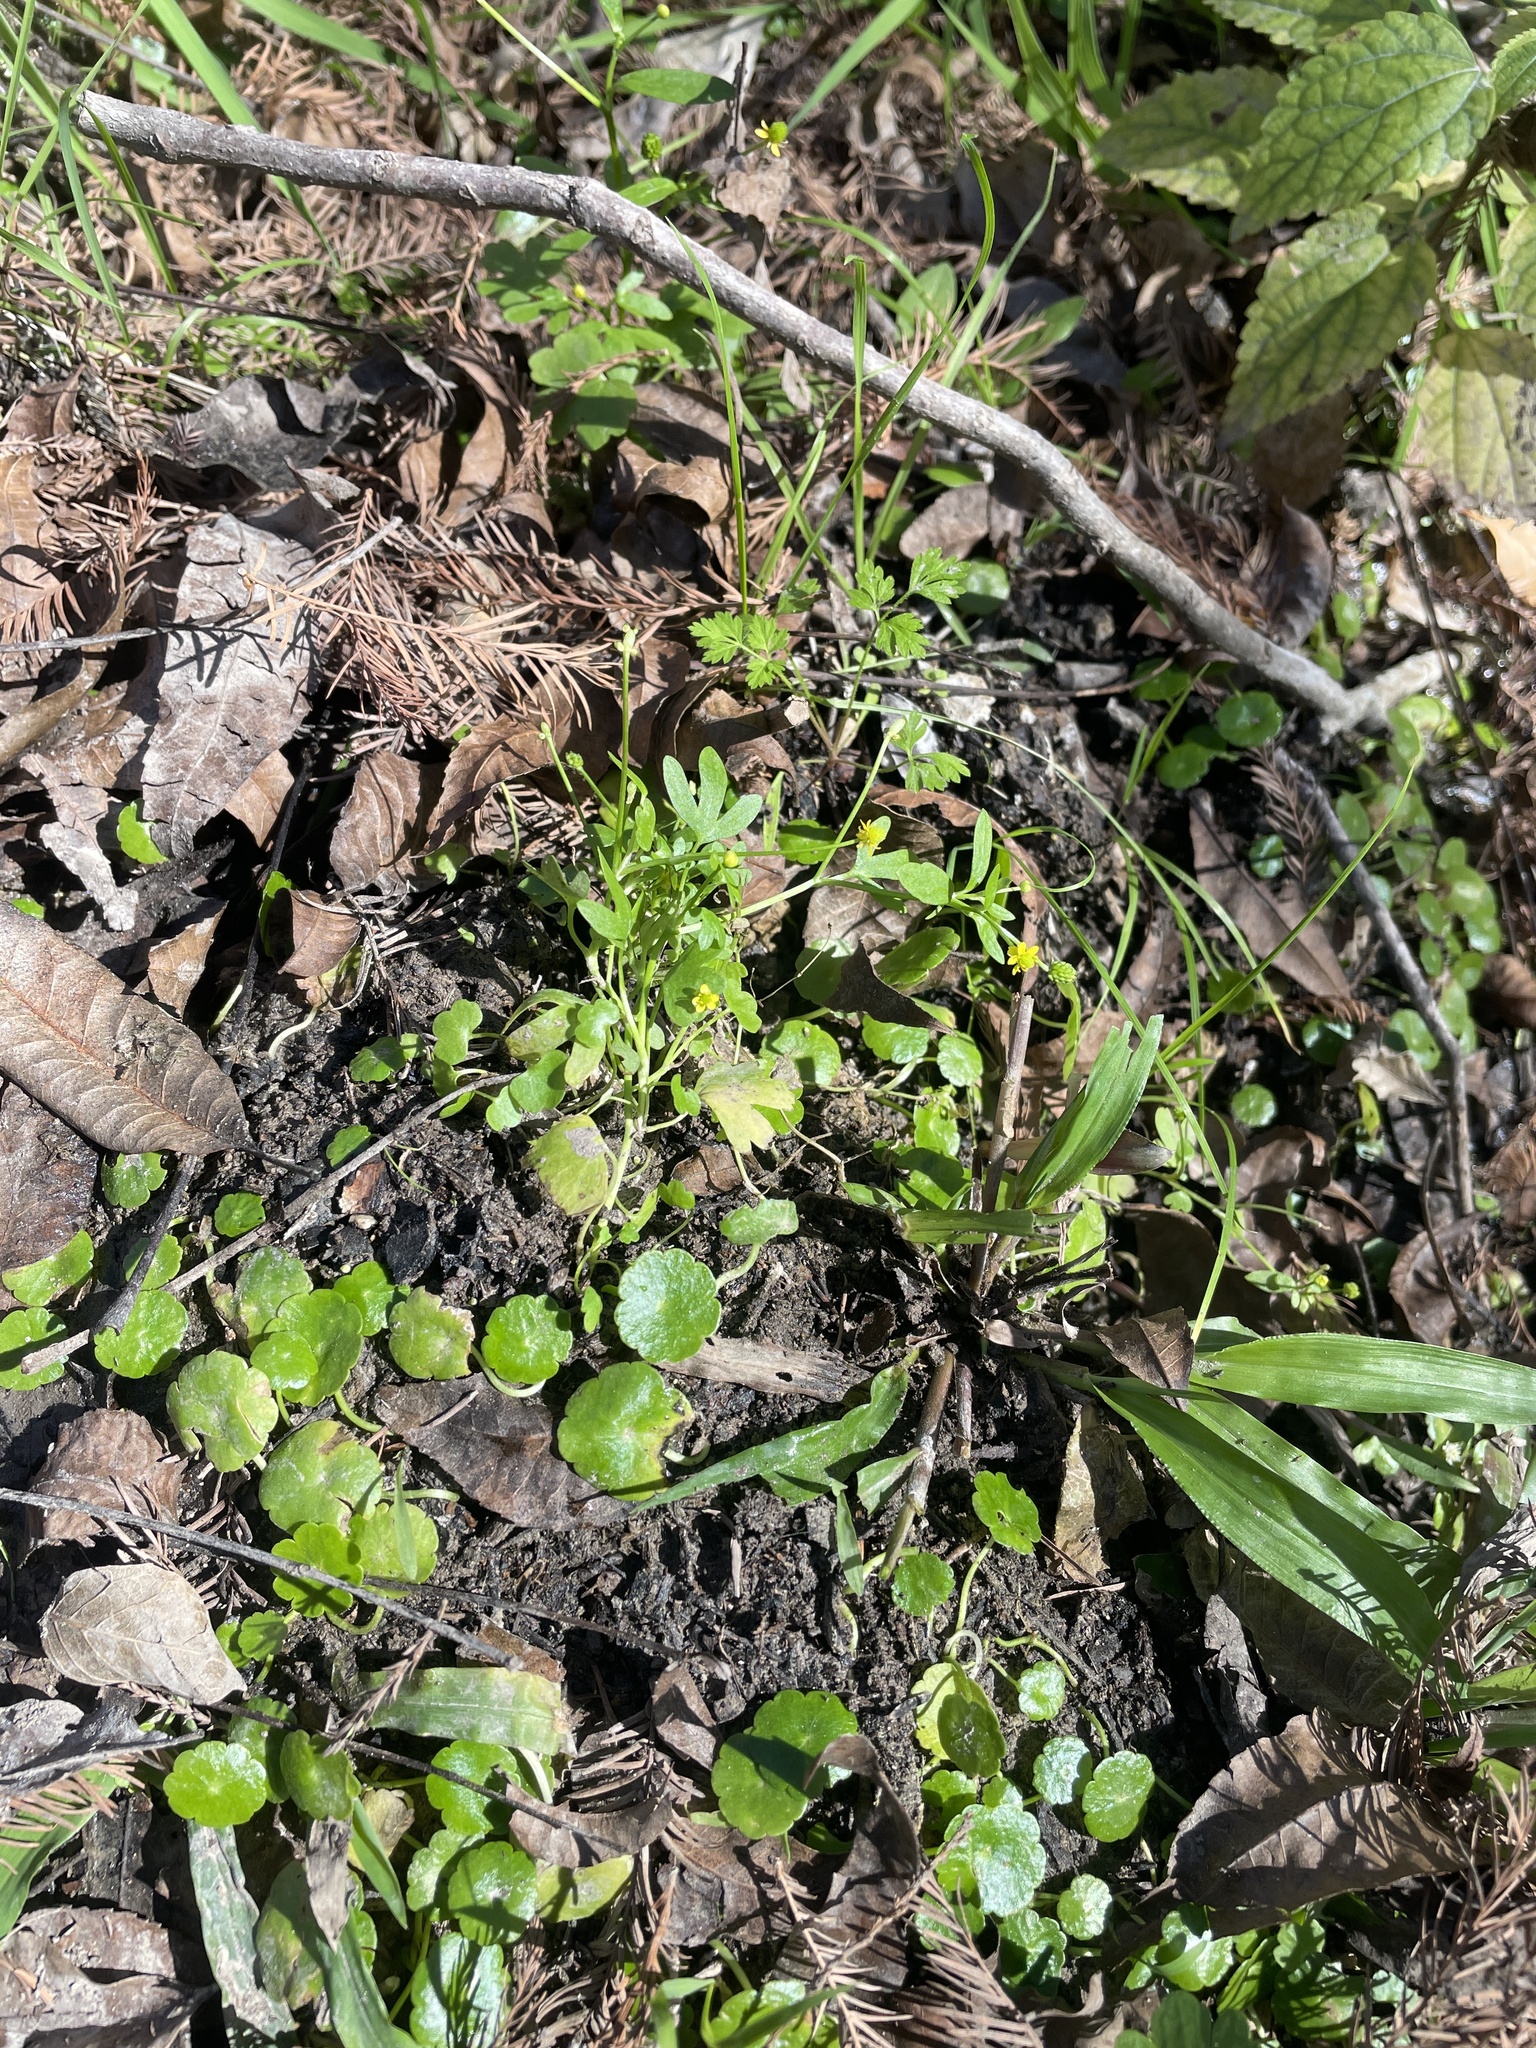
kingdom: Plantae
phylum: Tracheophyta
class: Magnoliopsida
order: Ranunculales
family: Ranunculaceae
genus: Ranunculus
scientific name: Ranunculus sceleratus
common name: Celery-leaved buttercup
